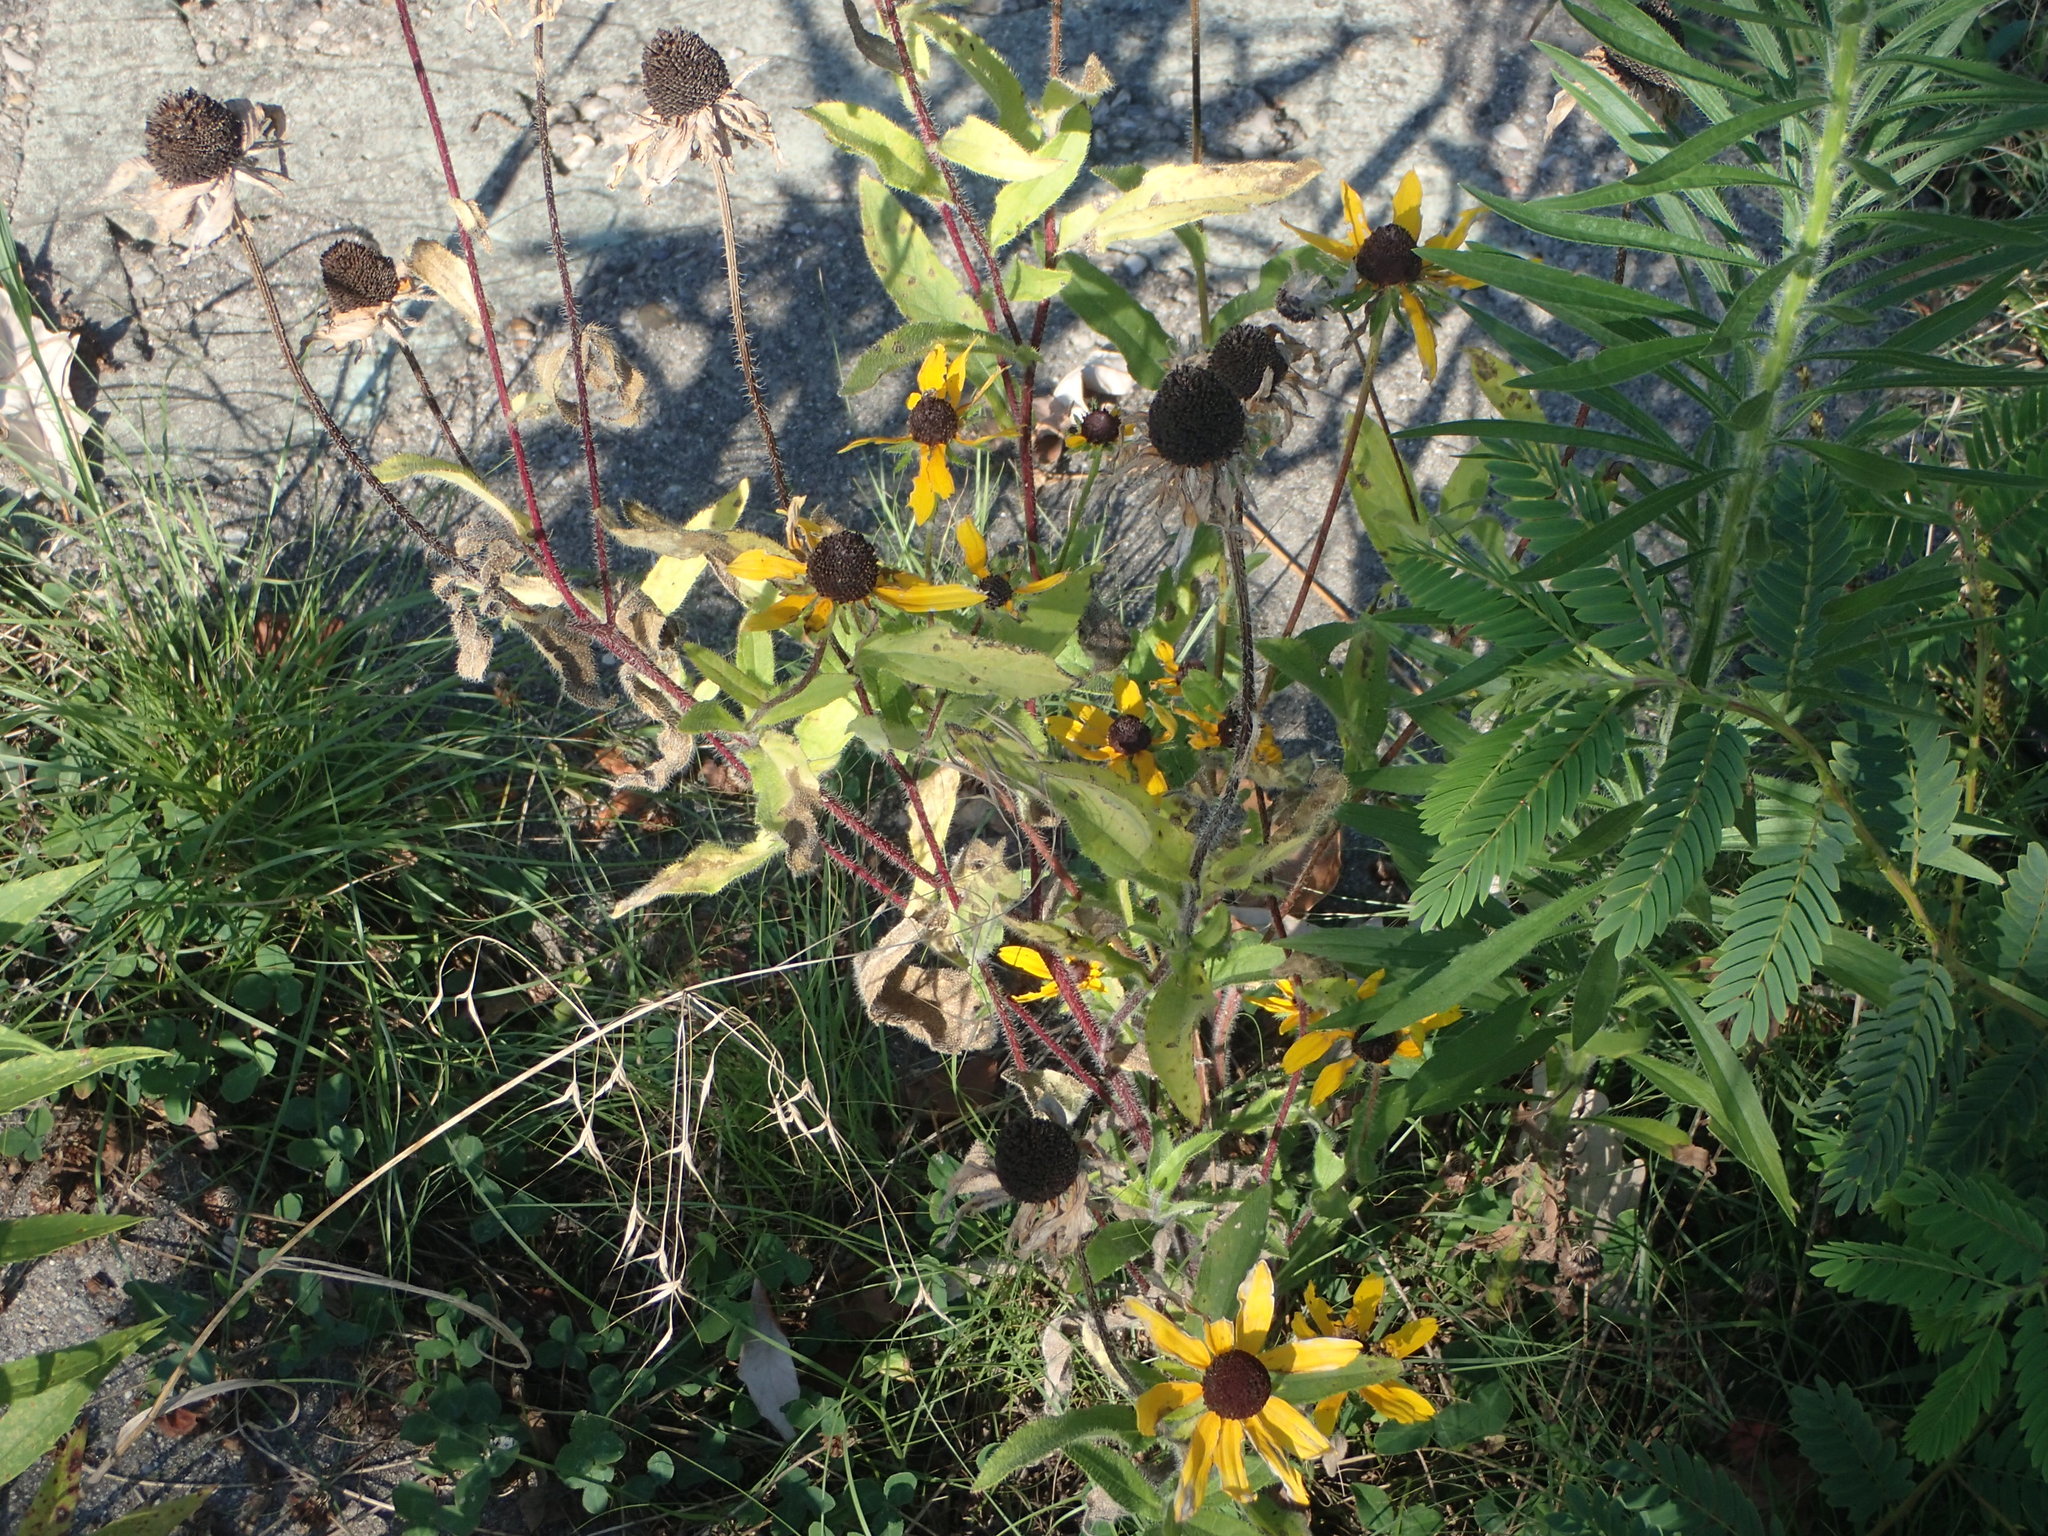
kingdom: Plantae
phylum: Tracheophyta
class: Magnoliopsida
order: Asterales
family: Asteraceae
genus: Rudbeckia
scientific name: Rudbeckia hirta
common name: Black-eyed-susan
